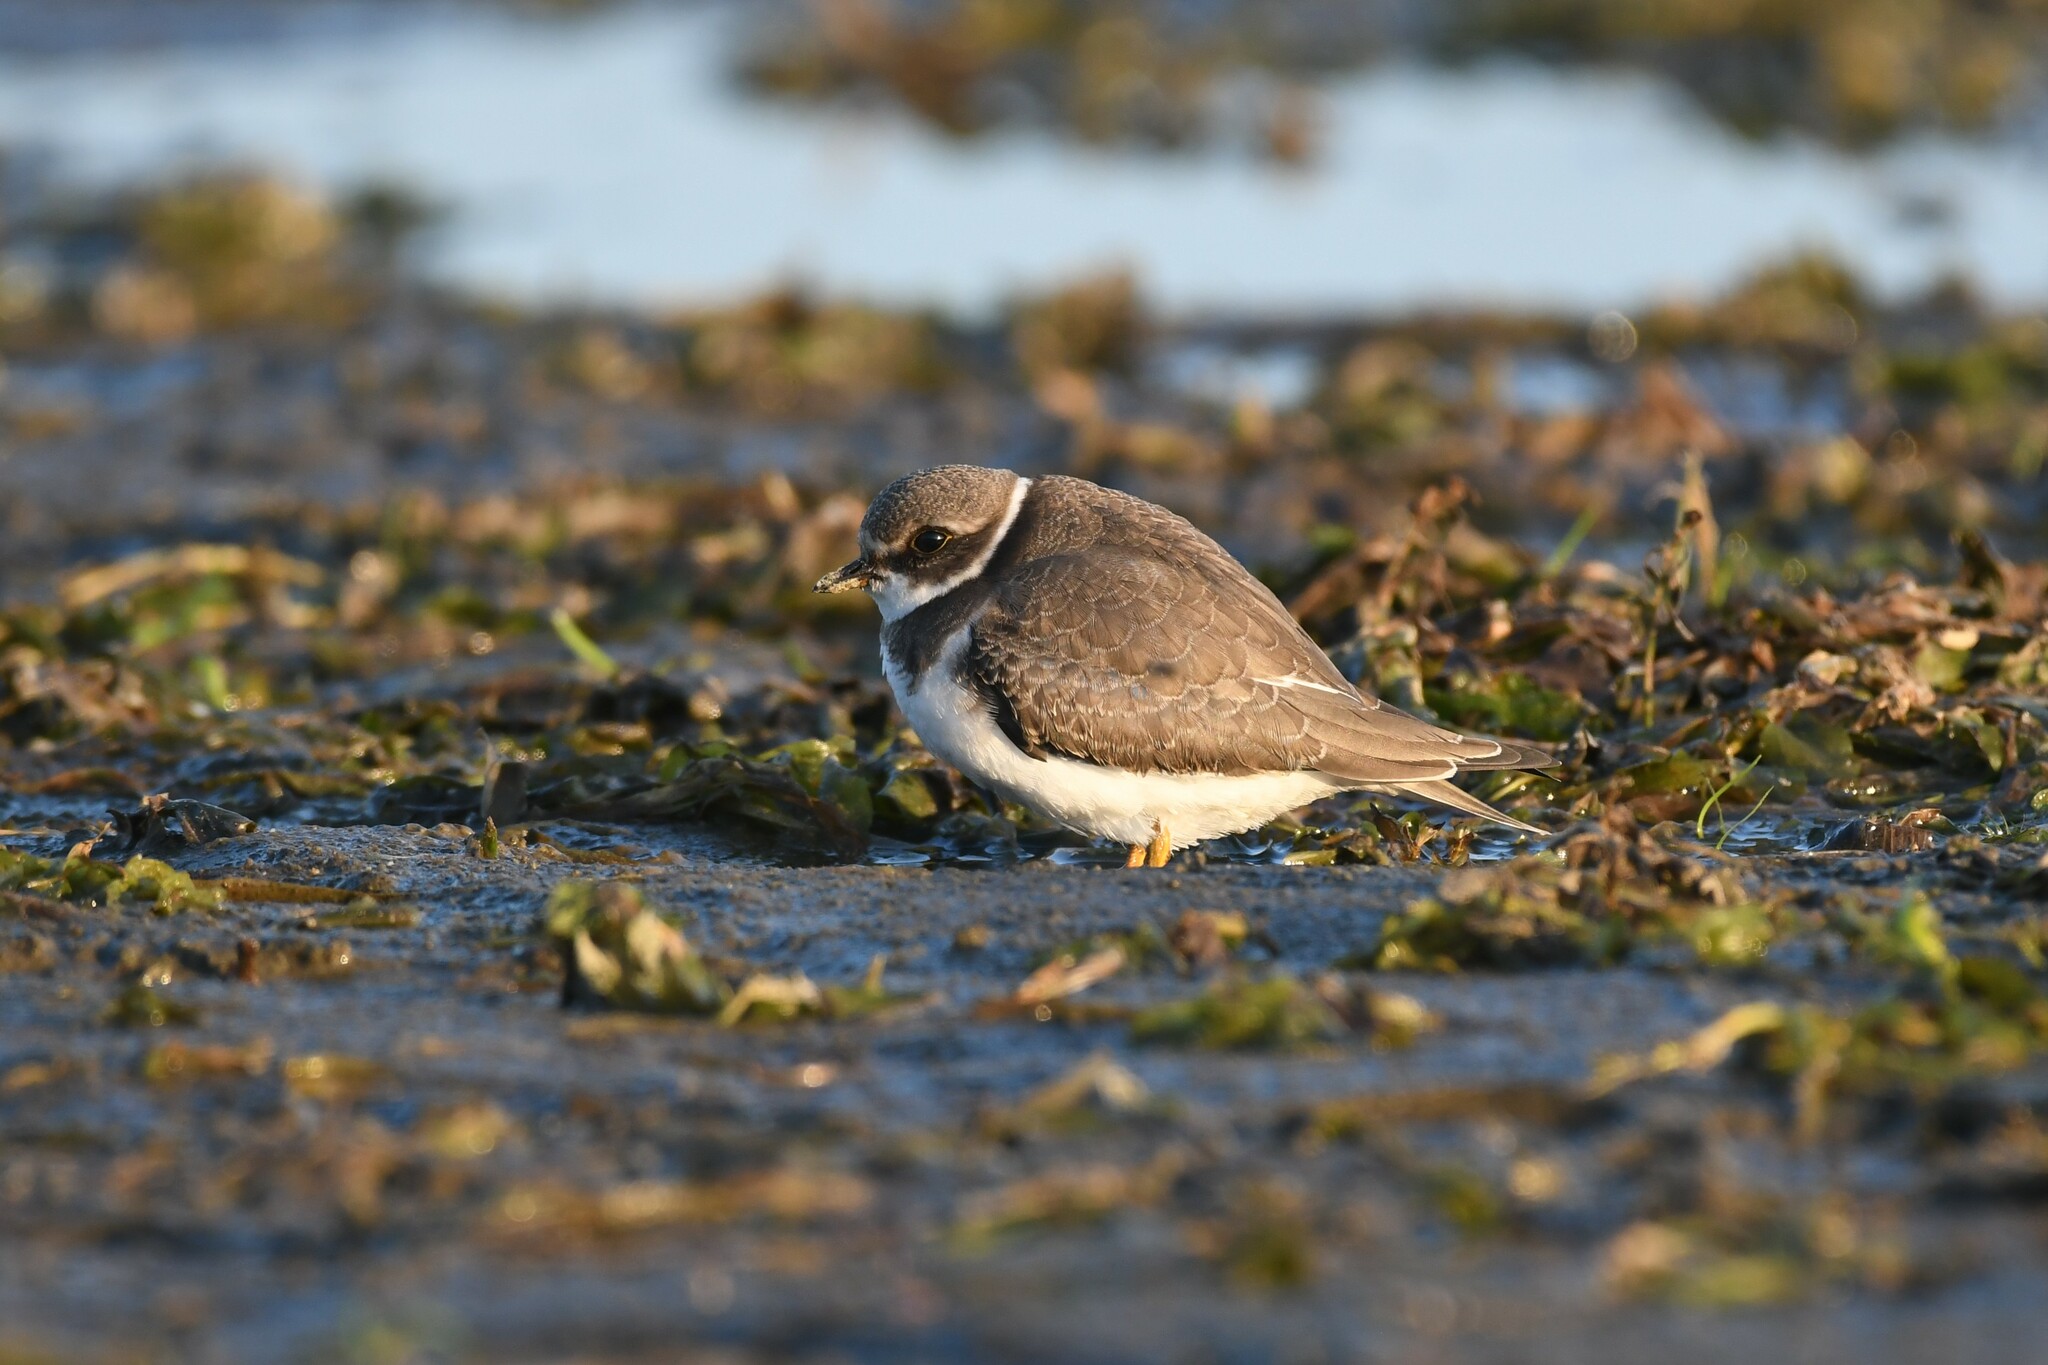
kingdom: Animalia
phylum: Chordata
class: Aves
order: Charadriiformes
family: Charadriidae
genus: Charadrius
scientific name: Charadrius semipalmatus
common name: Semipalmated plover
